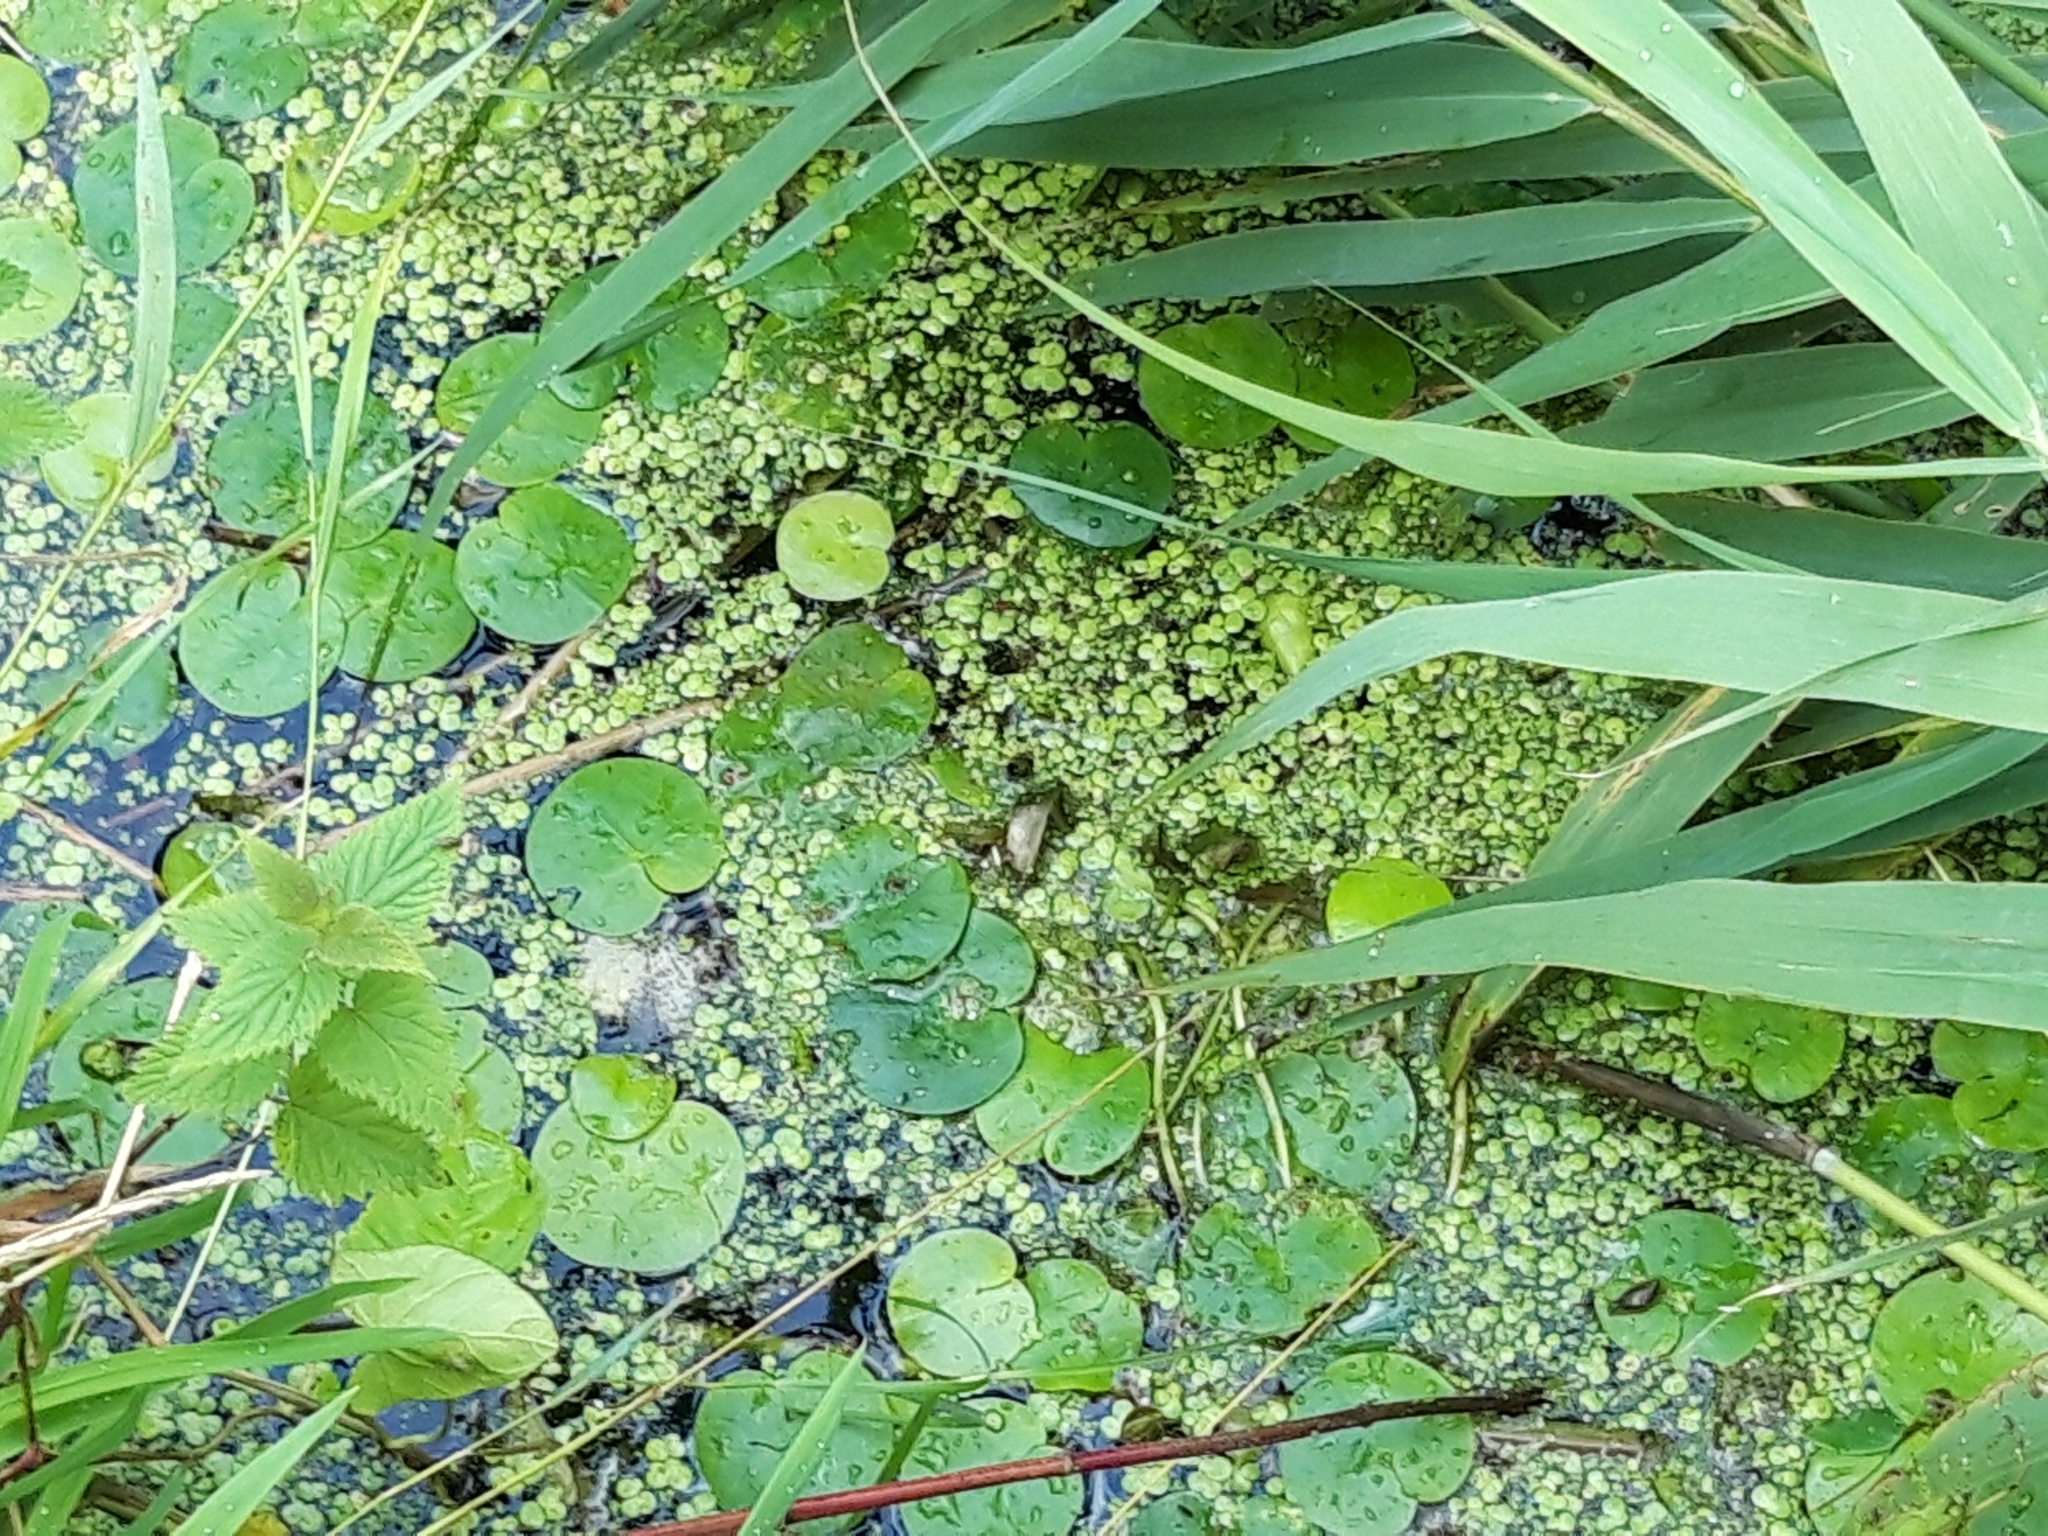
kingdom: Plantae
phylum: Tracheophyta
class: Liliopsida
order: Alismatales
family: Hydrocharitaceae
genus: Hydrocharis
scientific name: Hydrocharis morsus-ranae
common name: Frogbit
